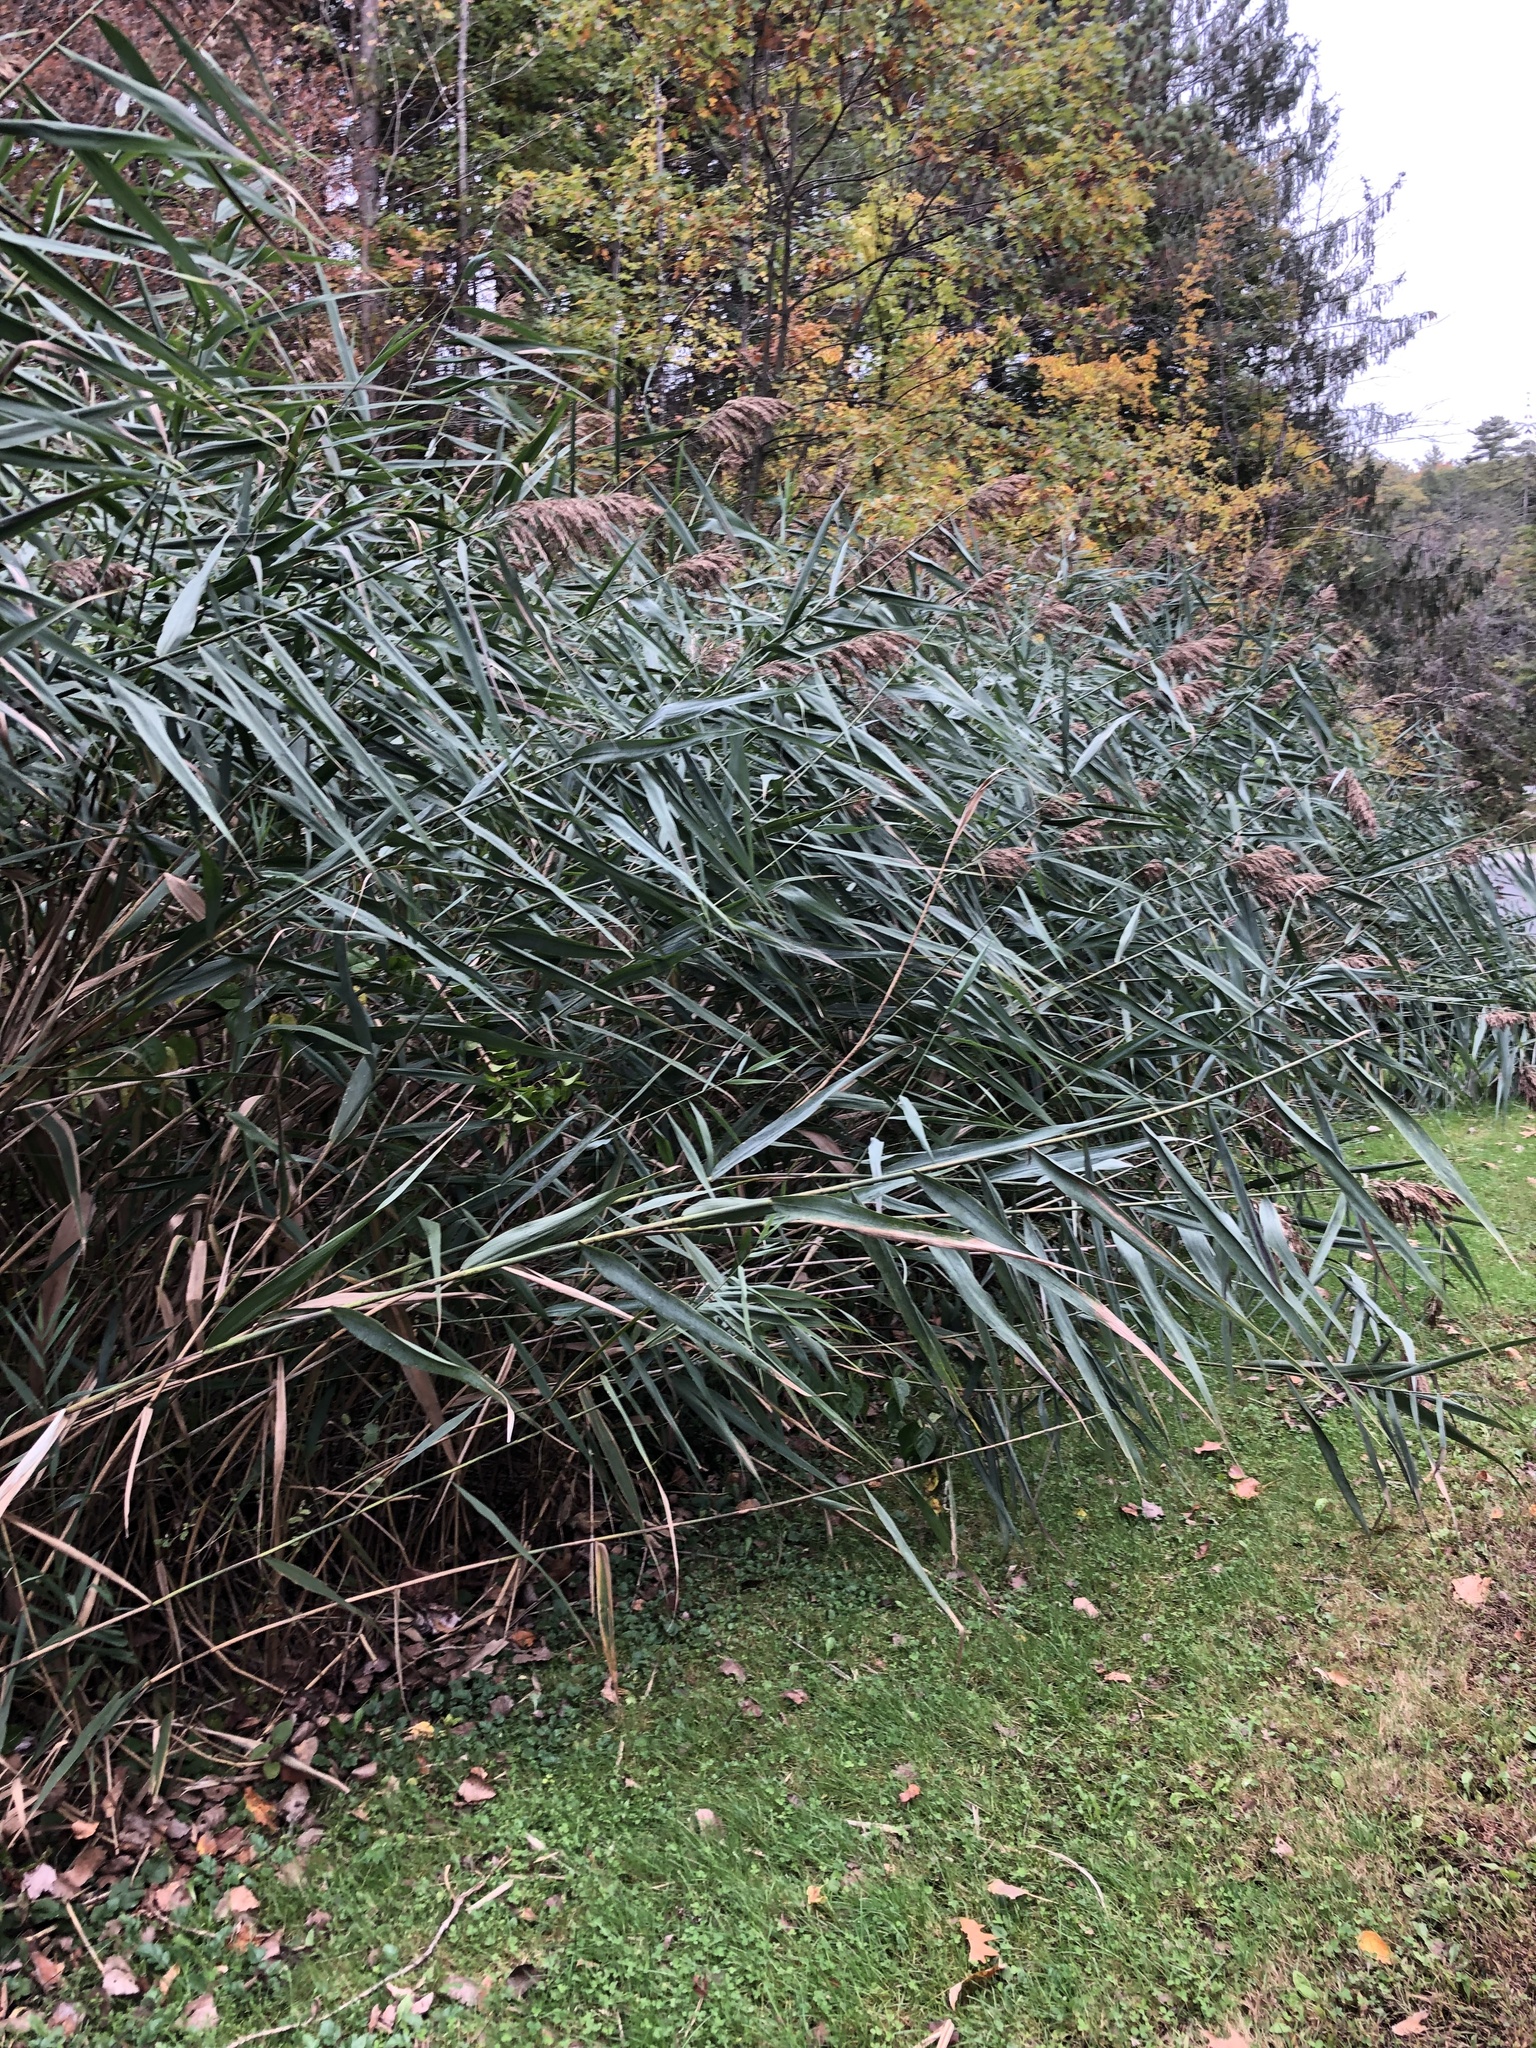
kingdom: Plantae
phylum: Tracheophyta
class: Liliopsida
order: Poales
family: Poaceae
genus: Phragmites
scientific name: Phragmites australis
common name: Common reed
